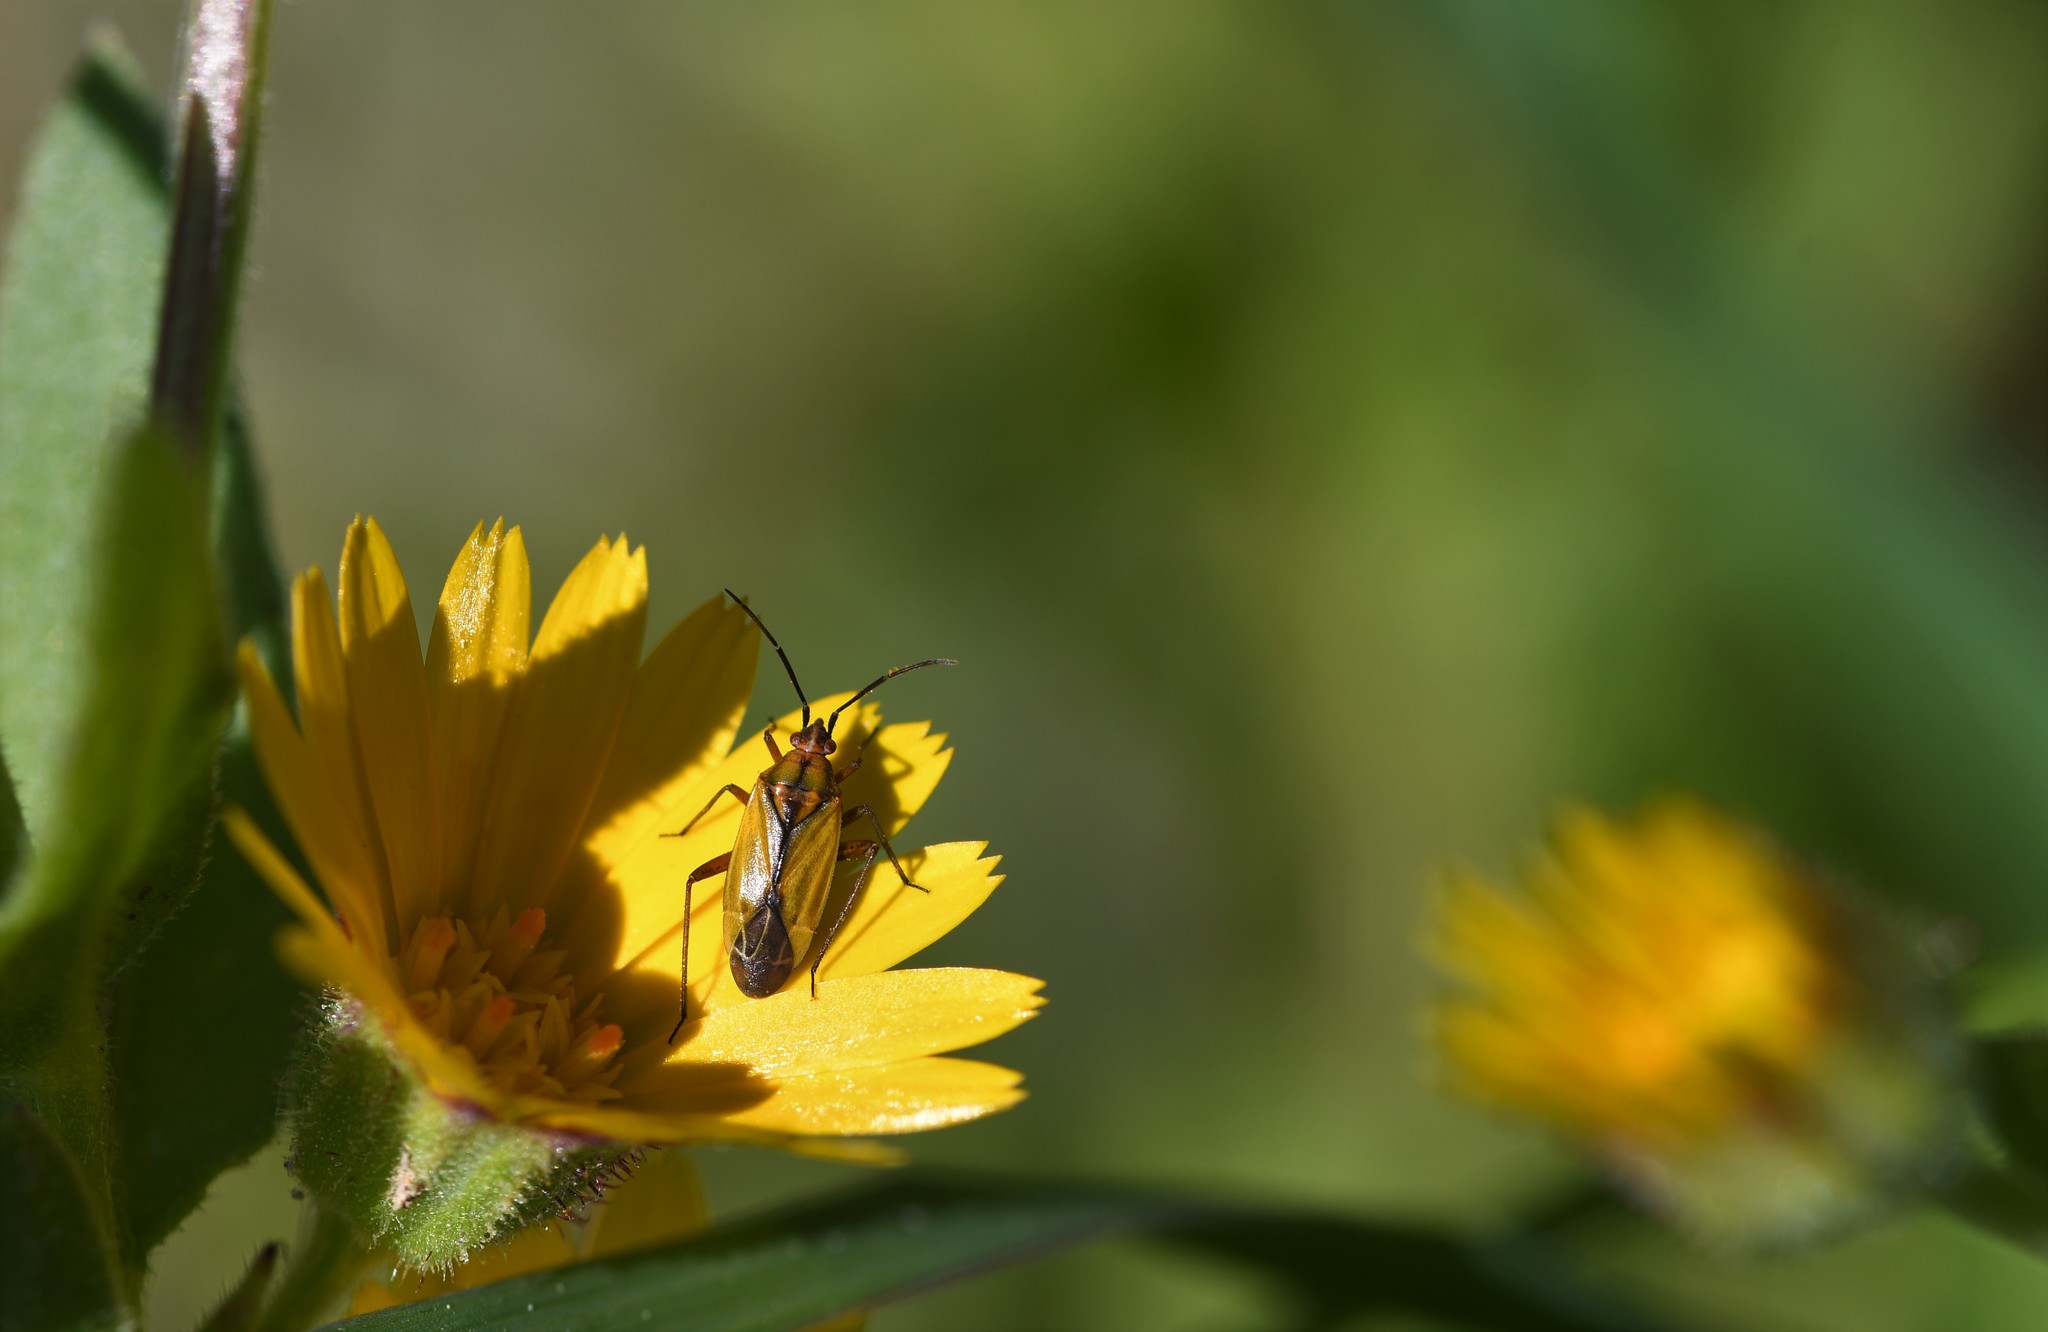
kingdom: Animalia
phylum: Arthropoda
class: Insecta
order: Hemiptera
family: Miridae
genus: Macrotylus
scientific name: Macrotylus nigricornis
